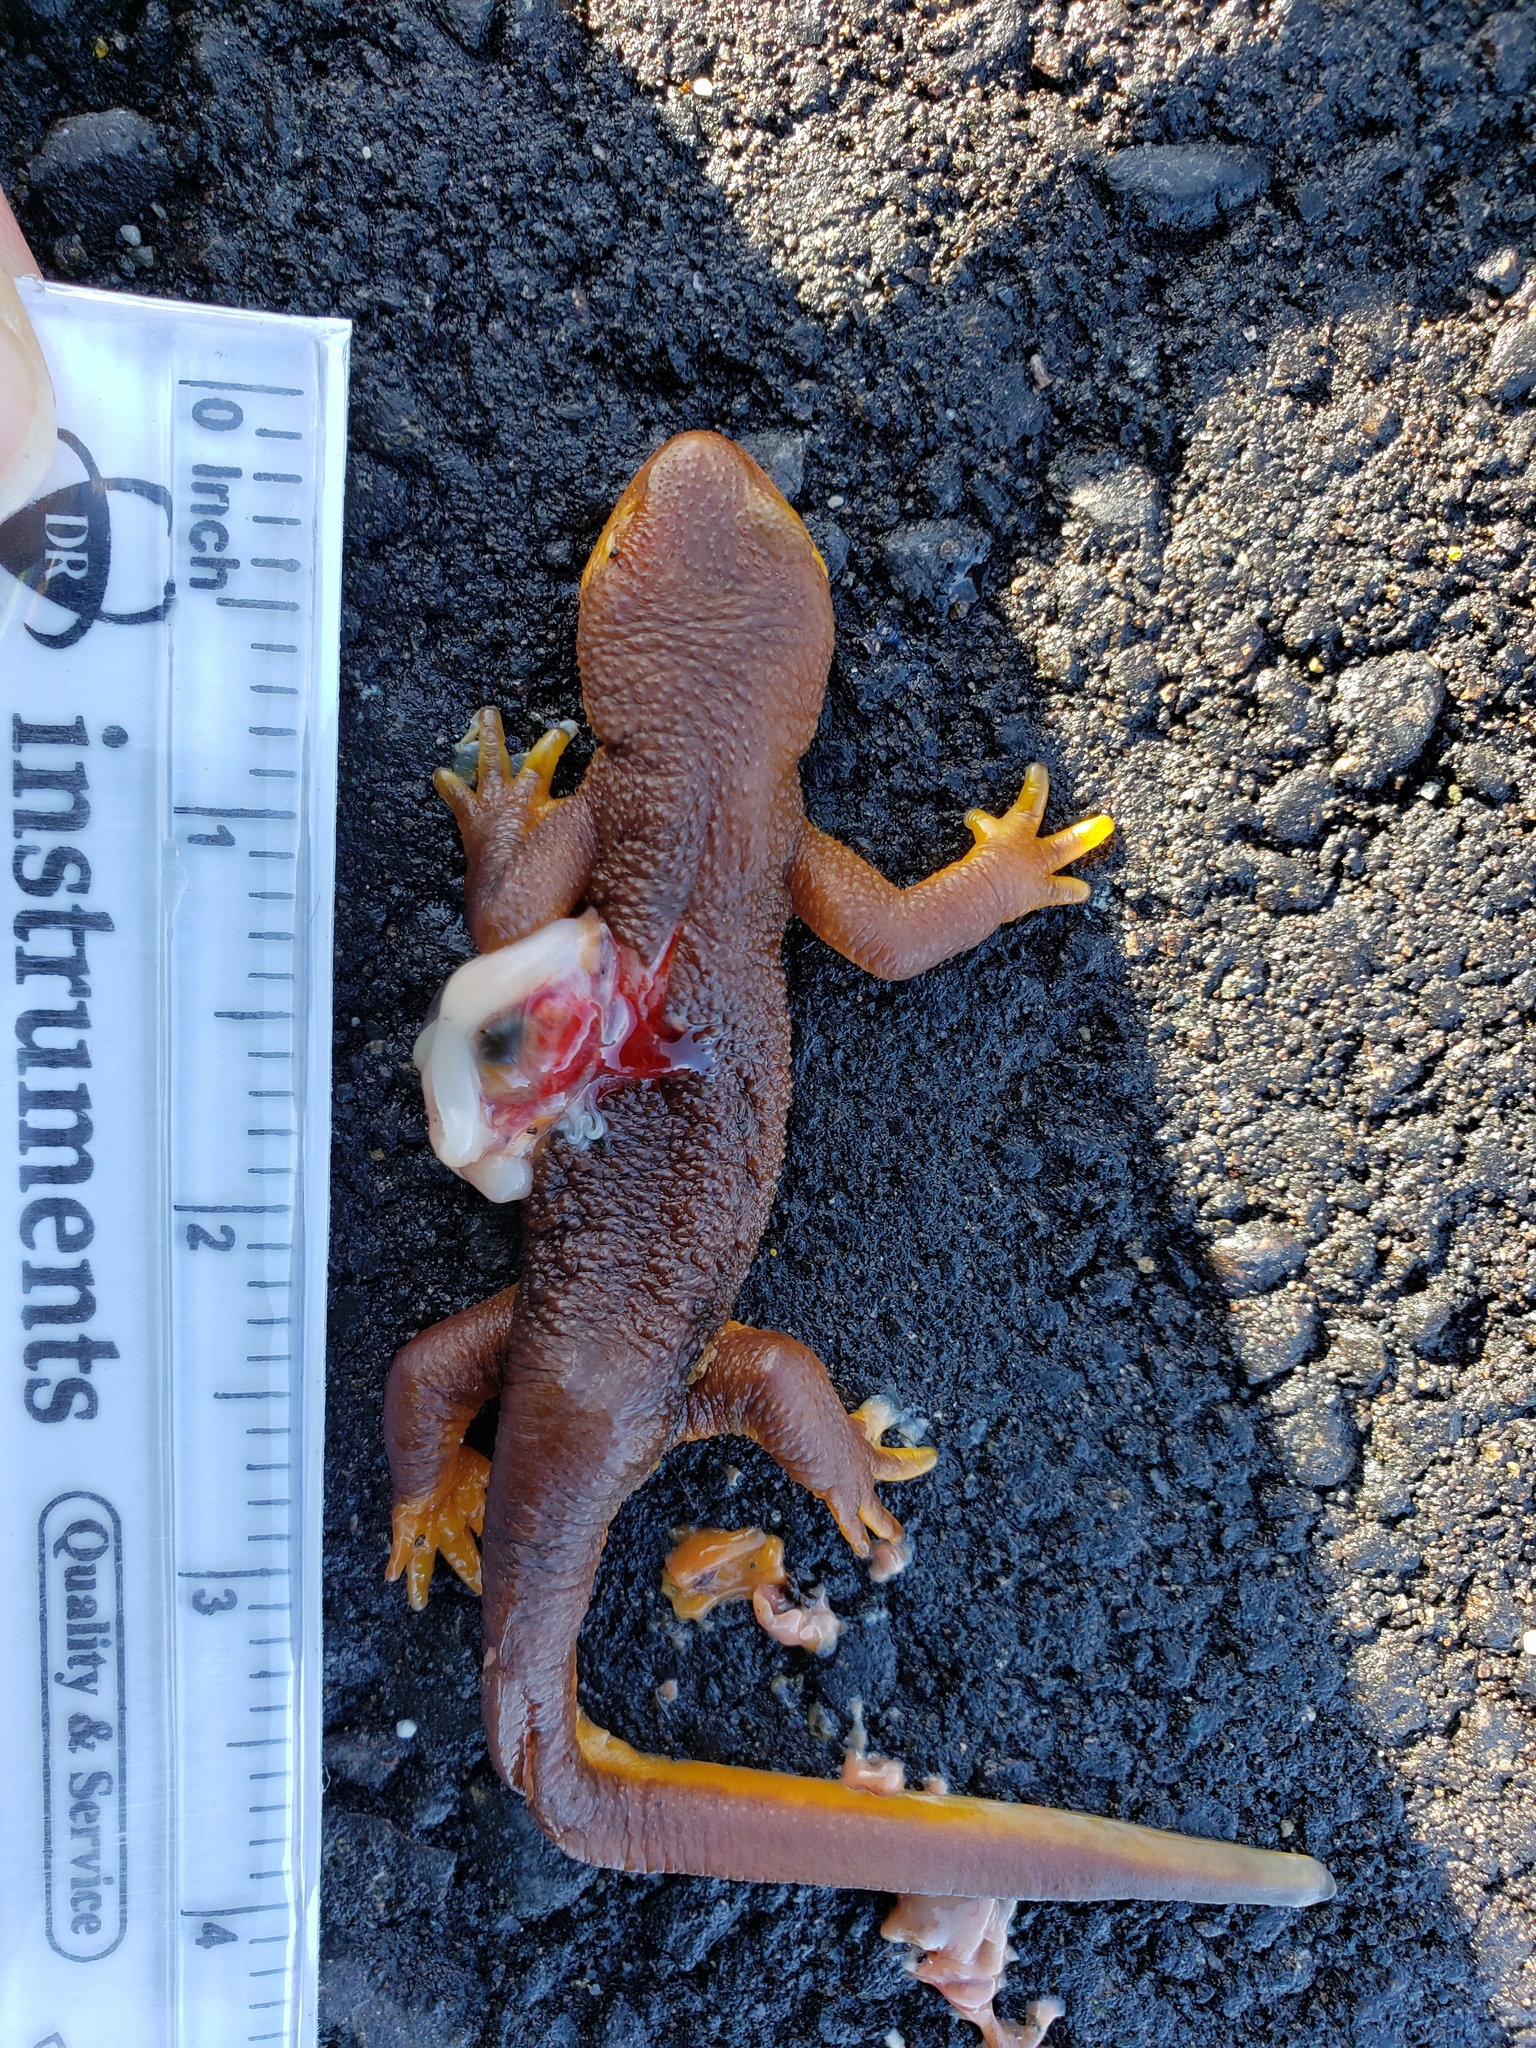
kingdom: Animalia
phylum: Chordata
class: Amphibia
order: Caudata
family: Salamandridae
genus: Taricha
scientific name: Taricha
